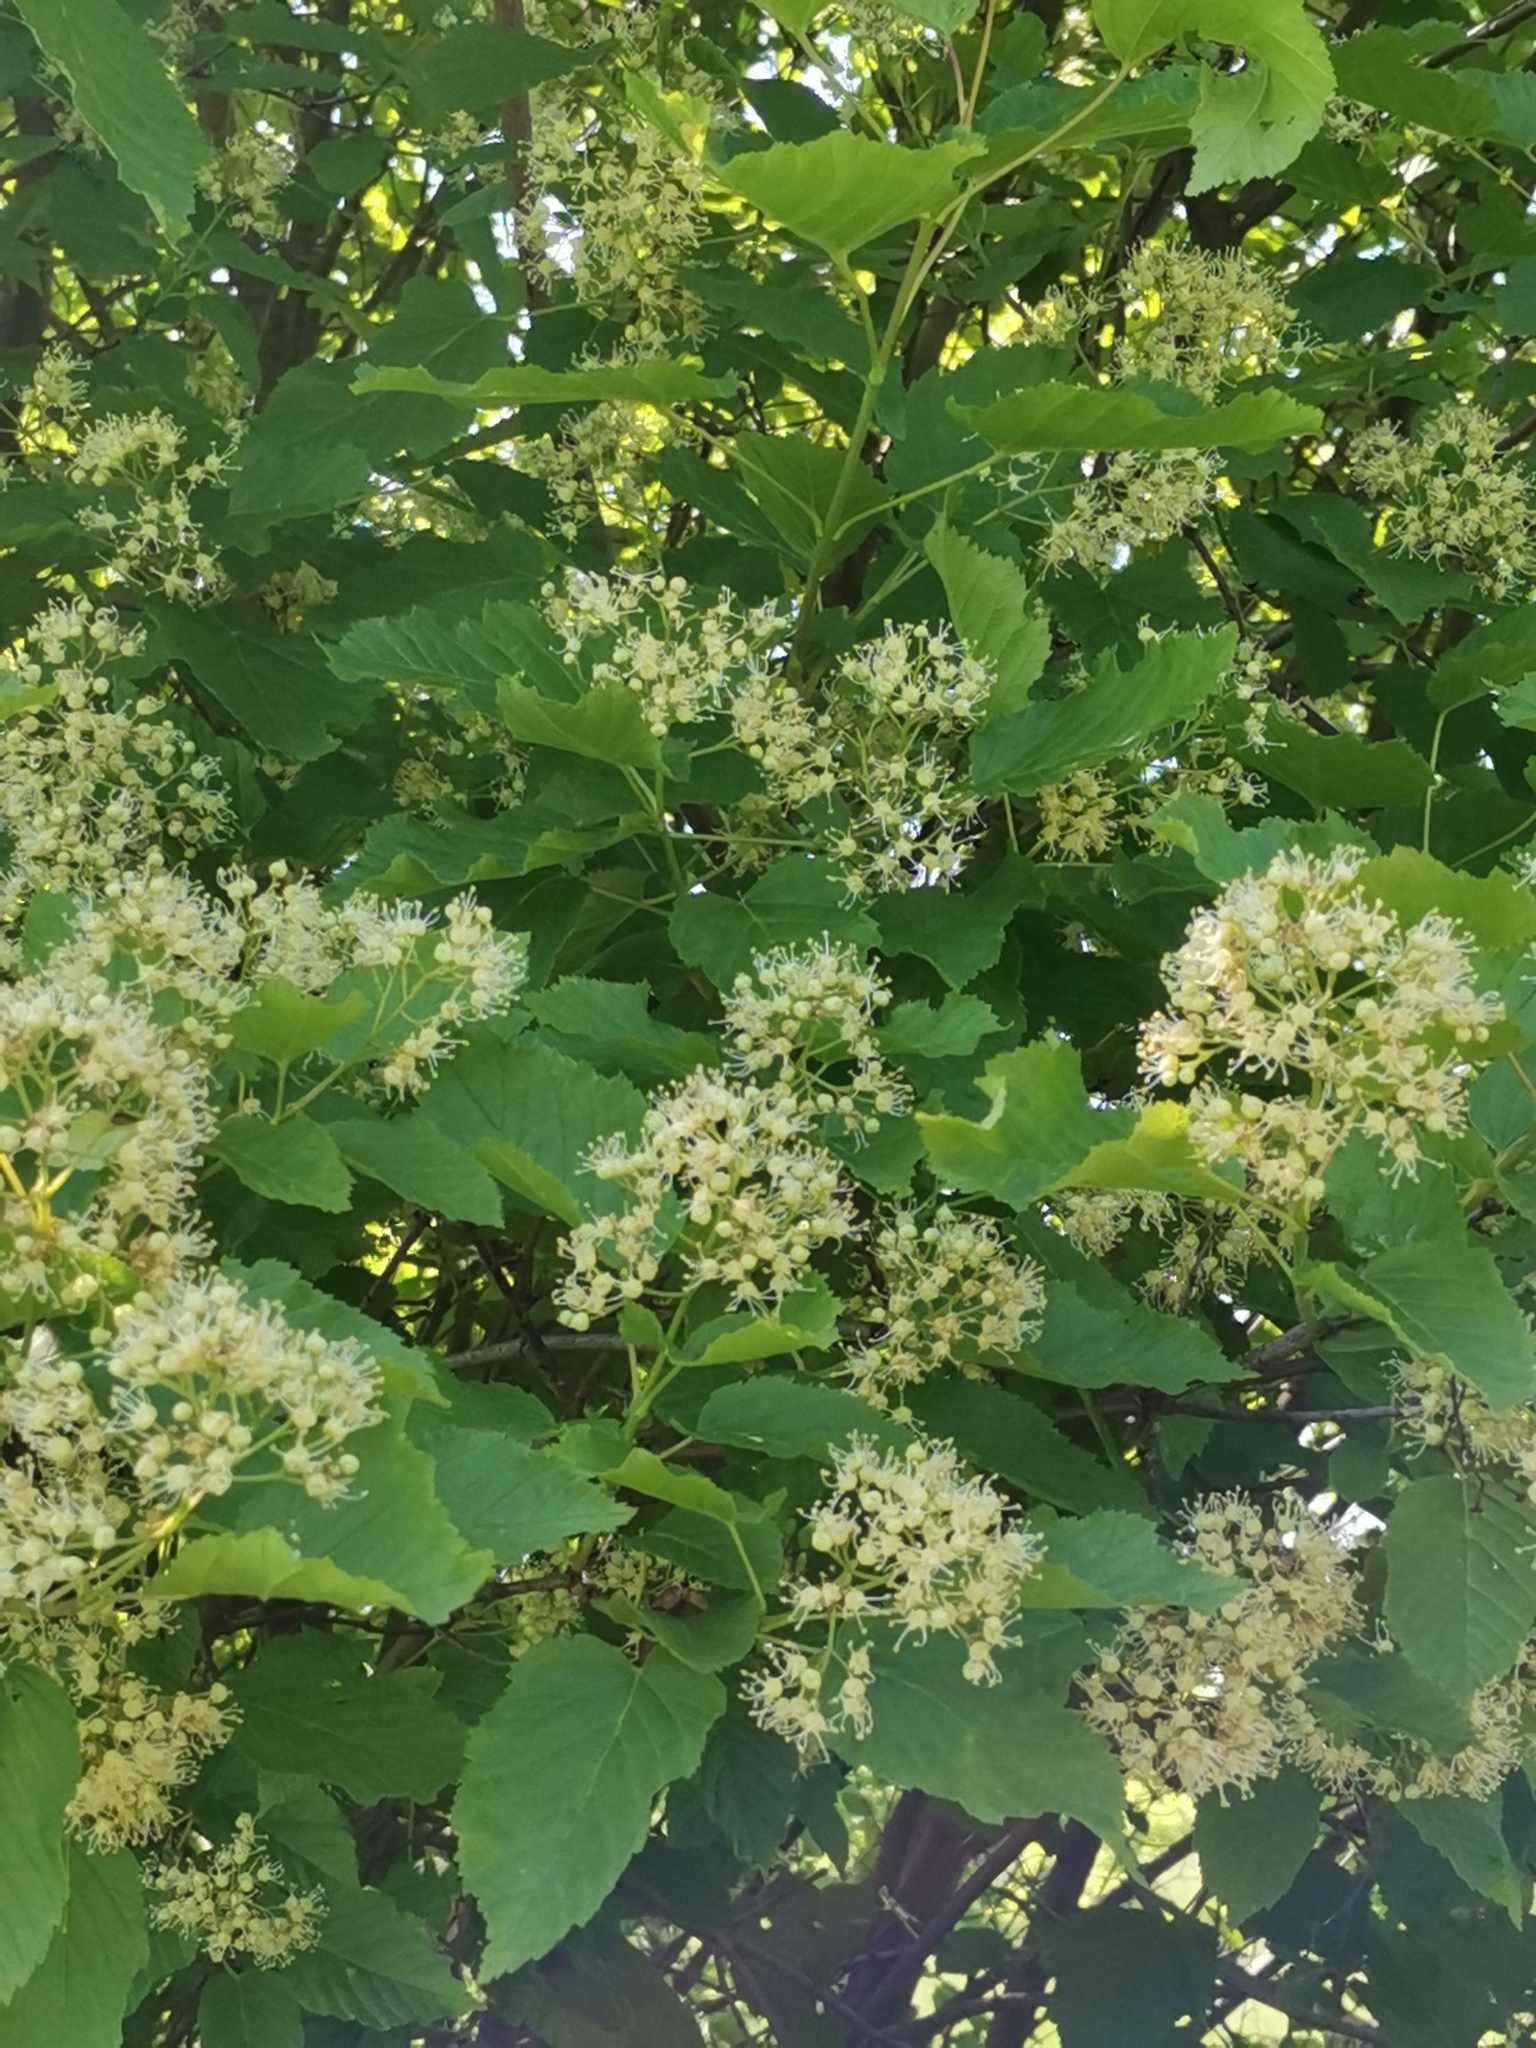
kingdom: Plantae
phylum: Tracheophyta
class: Magnoliopsida
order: Sapindales
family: Sapindaceae
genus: Acer
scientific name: Acer tataricum
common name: Tartar maple
